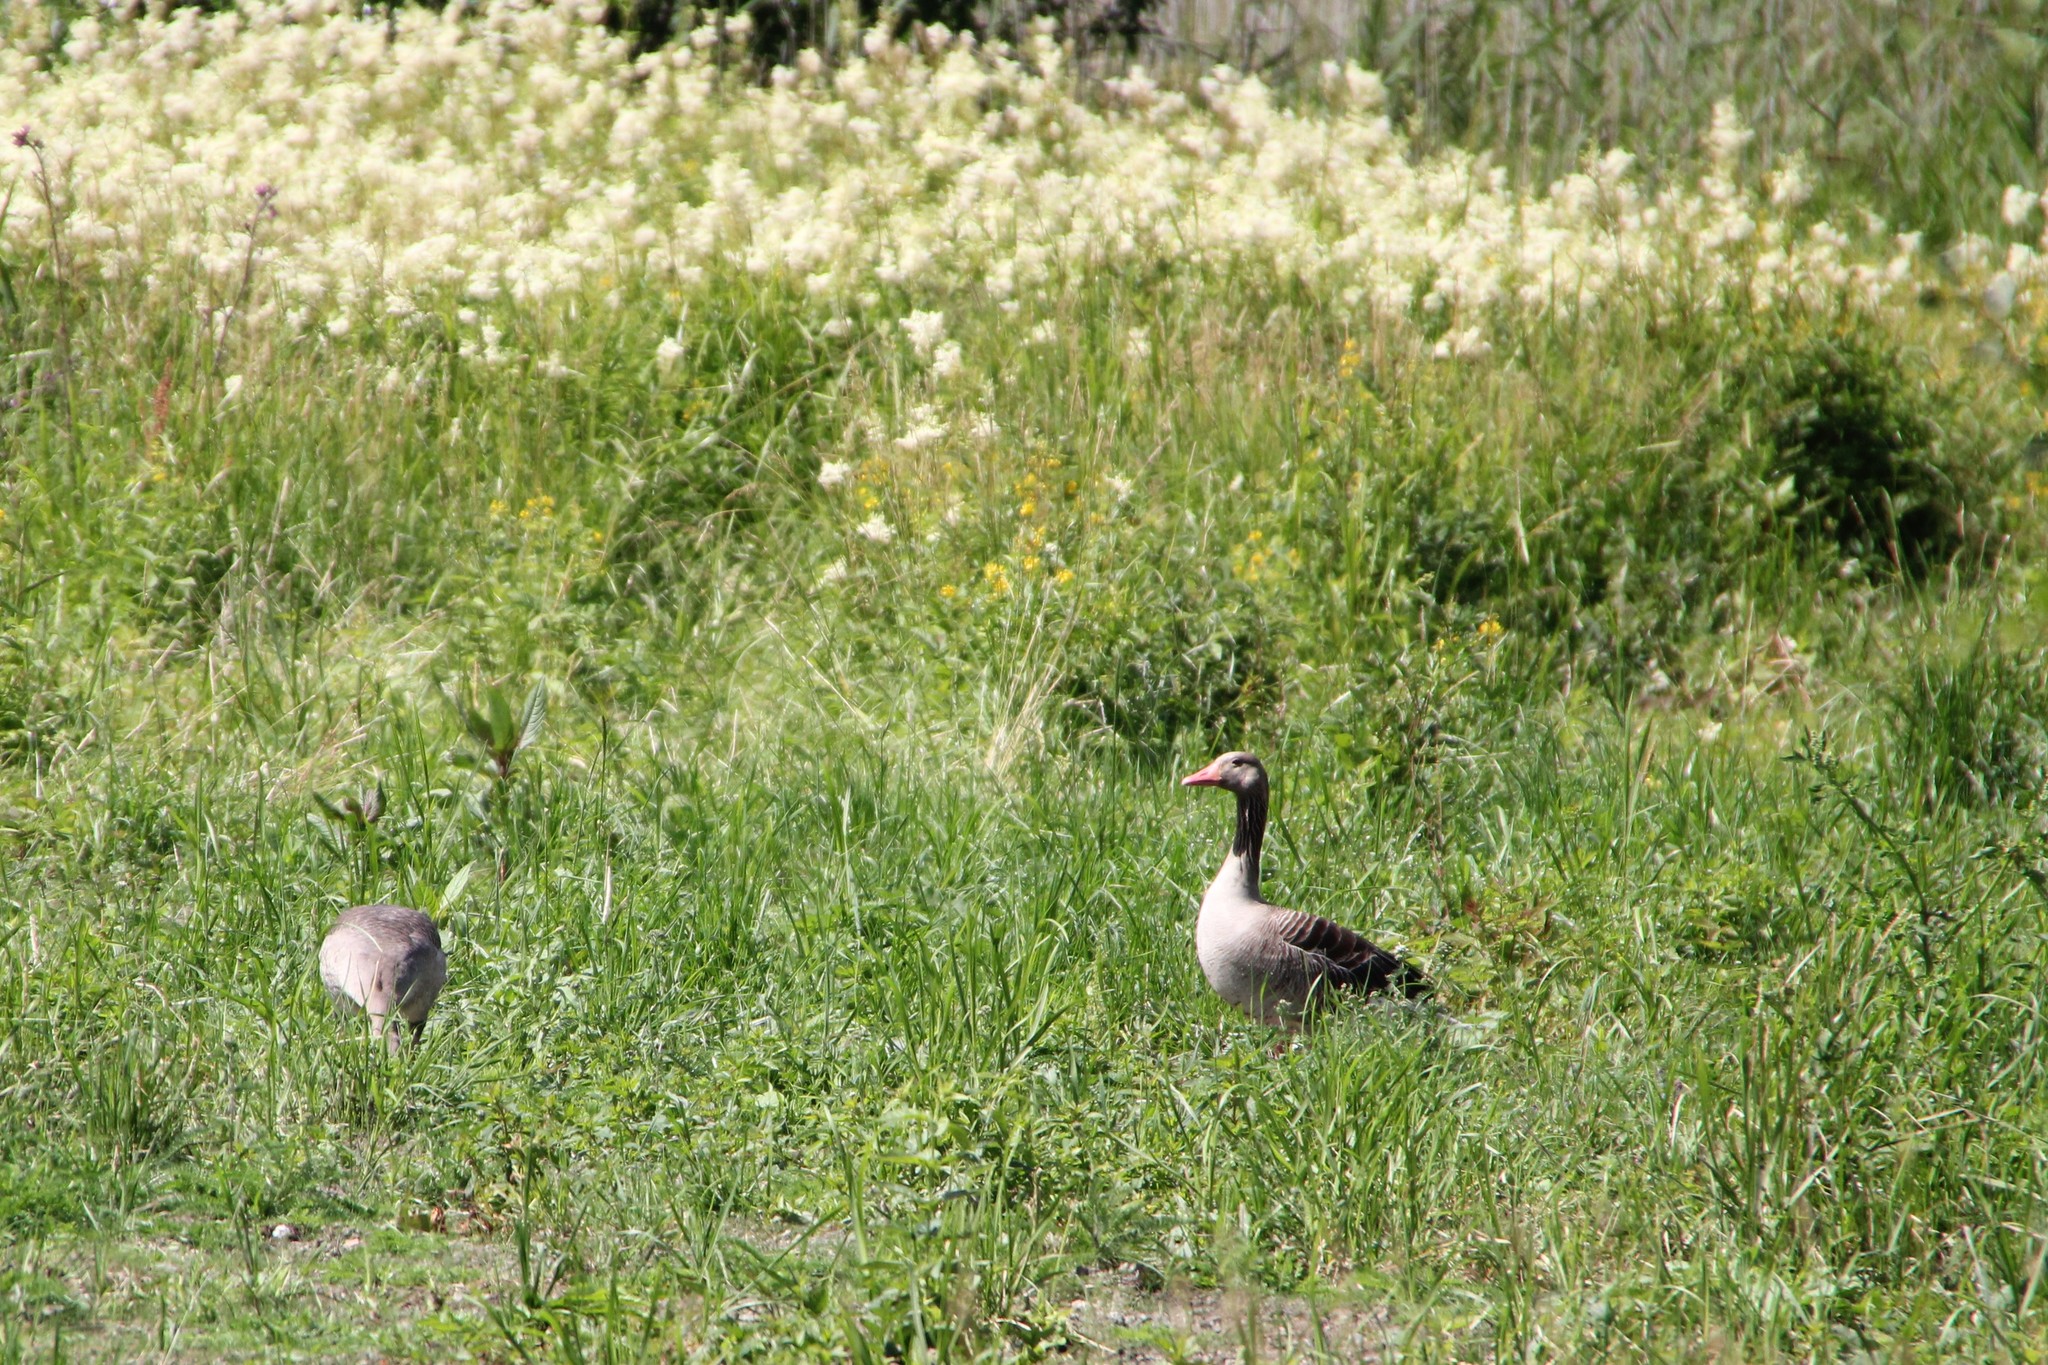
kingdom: Animalia
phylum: Chordata
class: Aves
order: Anseriformes
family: Anatidae
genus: Anser
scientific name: Anser anser
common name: Greylag goose
